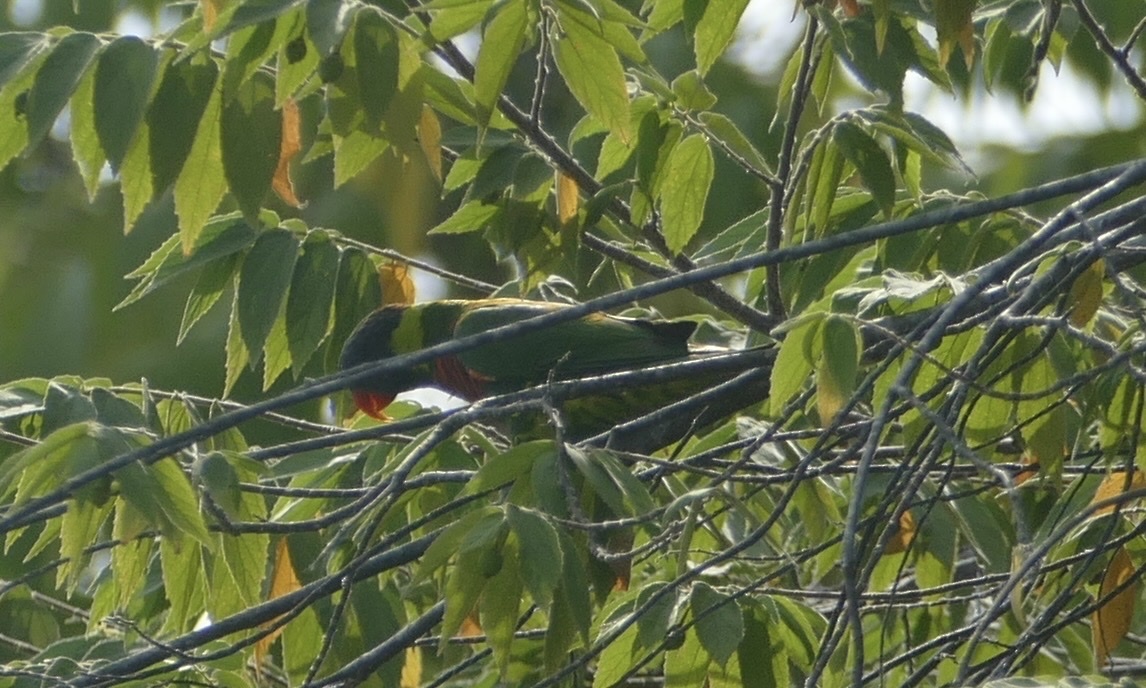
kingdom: Animalia
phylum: Chordata
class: Aves
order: Psittaciformes
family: Psittacidae
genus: Trichoglossus
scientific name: Trichoglossus haematodus
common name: Coconut lorikeet
